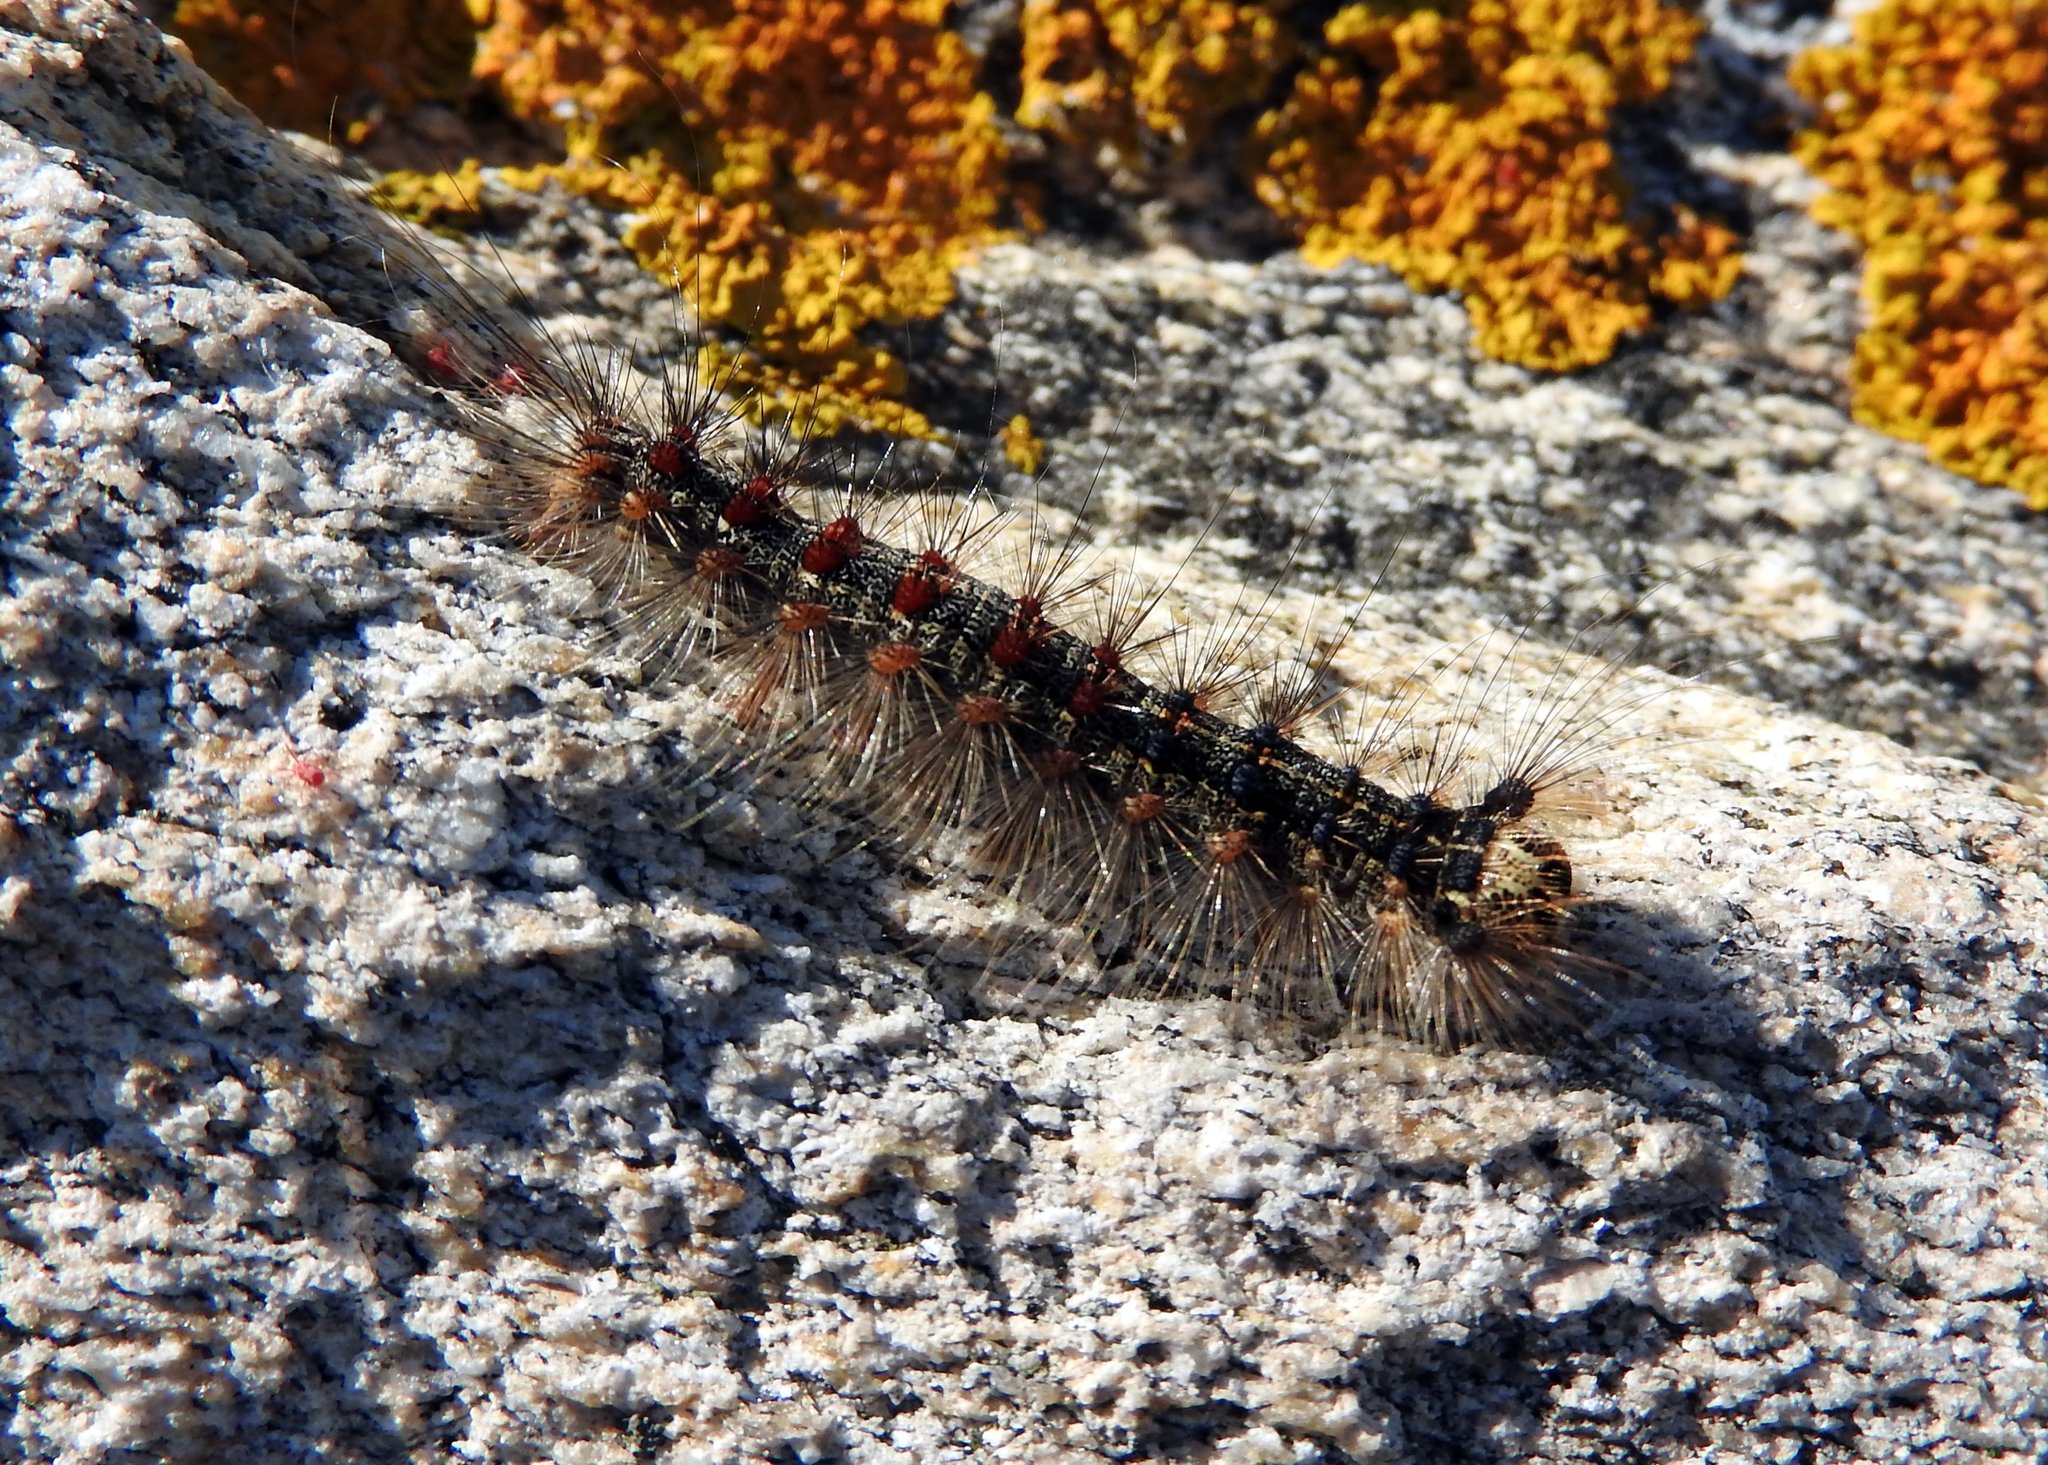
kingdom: Animalia
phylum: Arthropoda
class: Insecta
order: Lepidoptera
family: Erebidae
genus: Lymantria
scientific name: Lymantria dispar
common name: Gypsy moth
